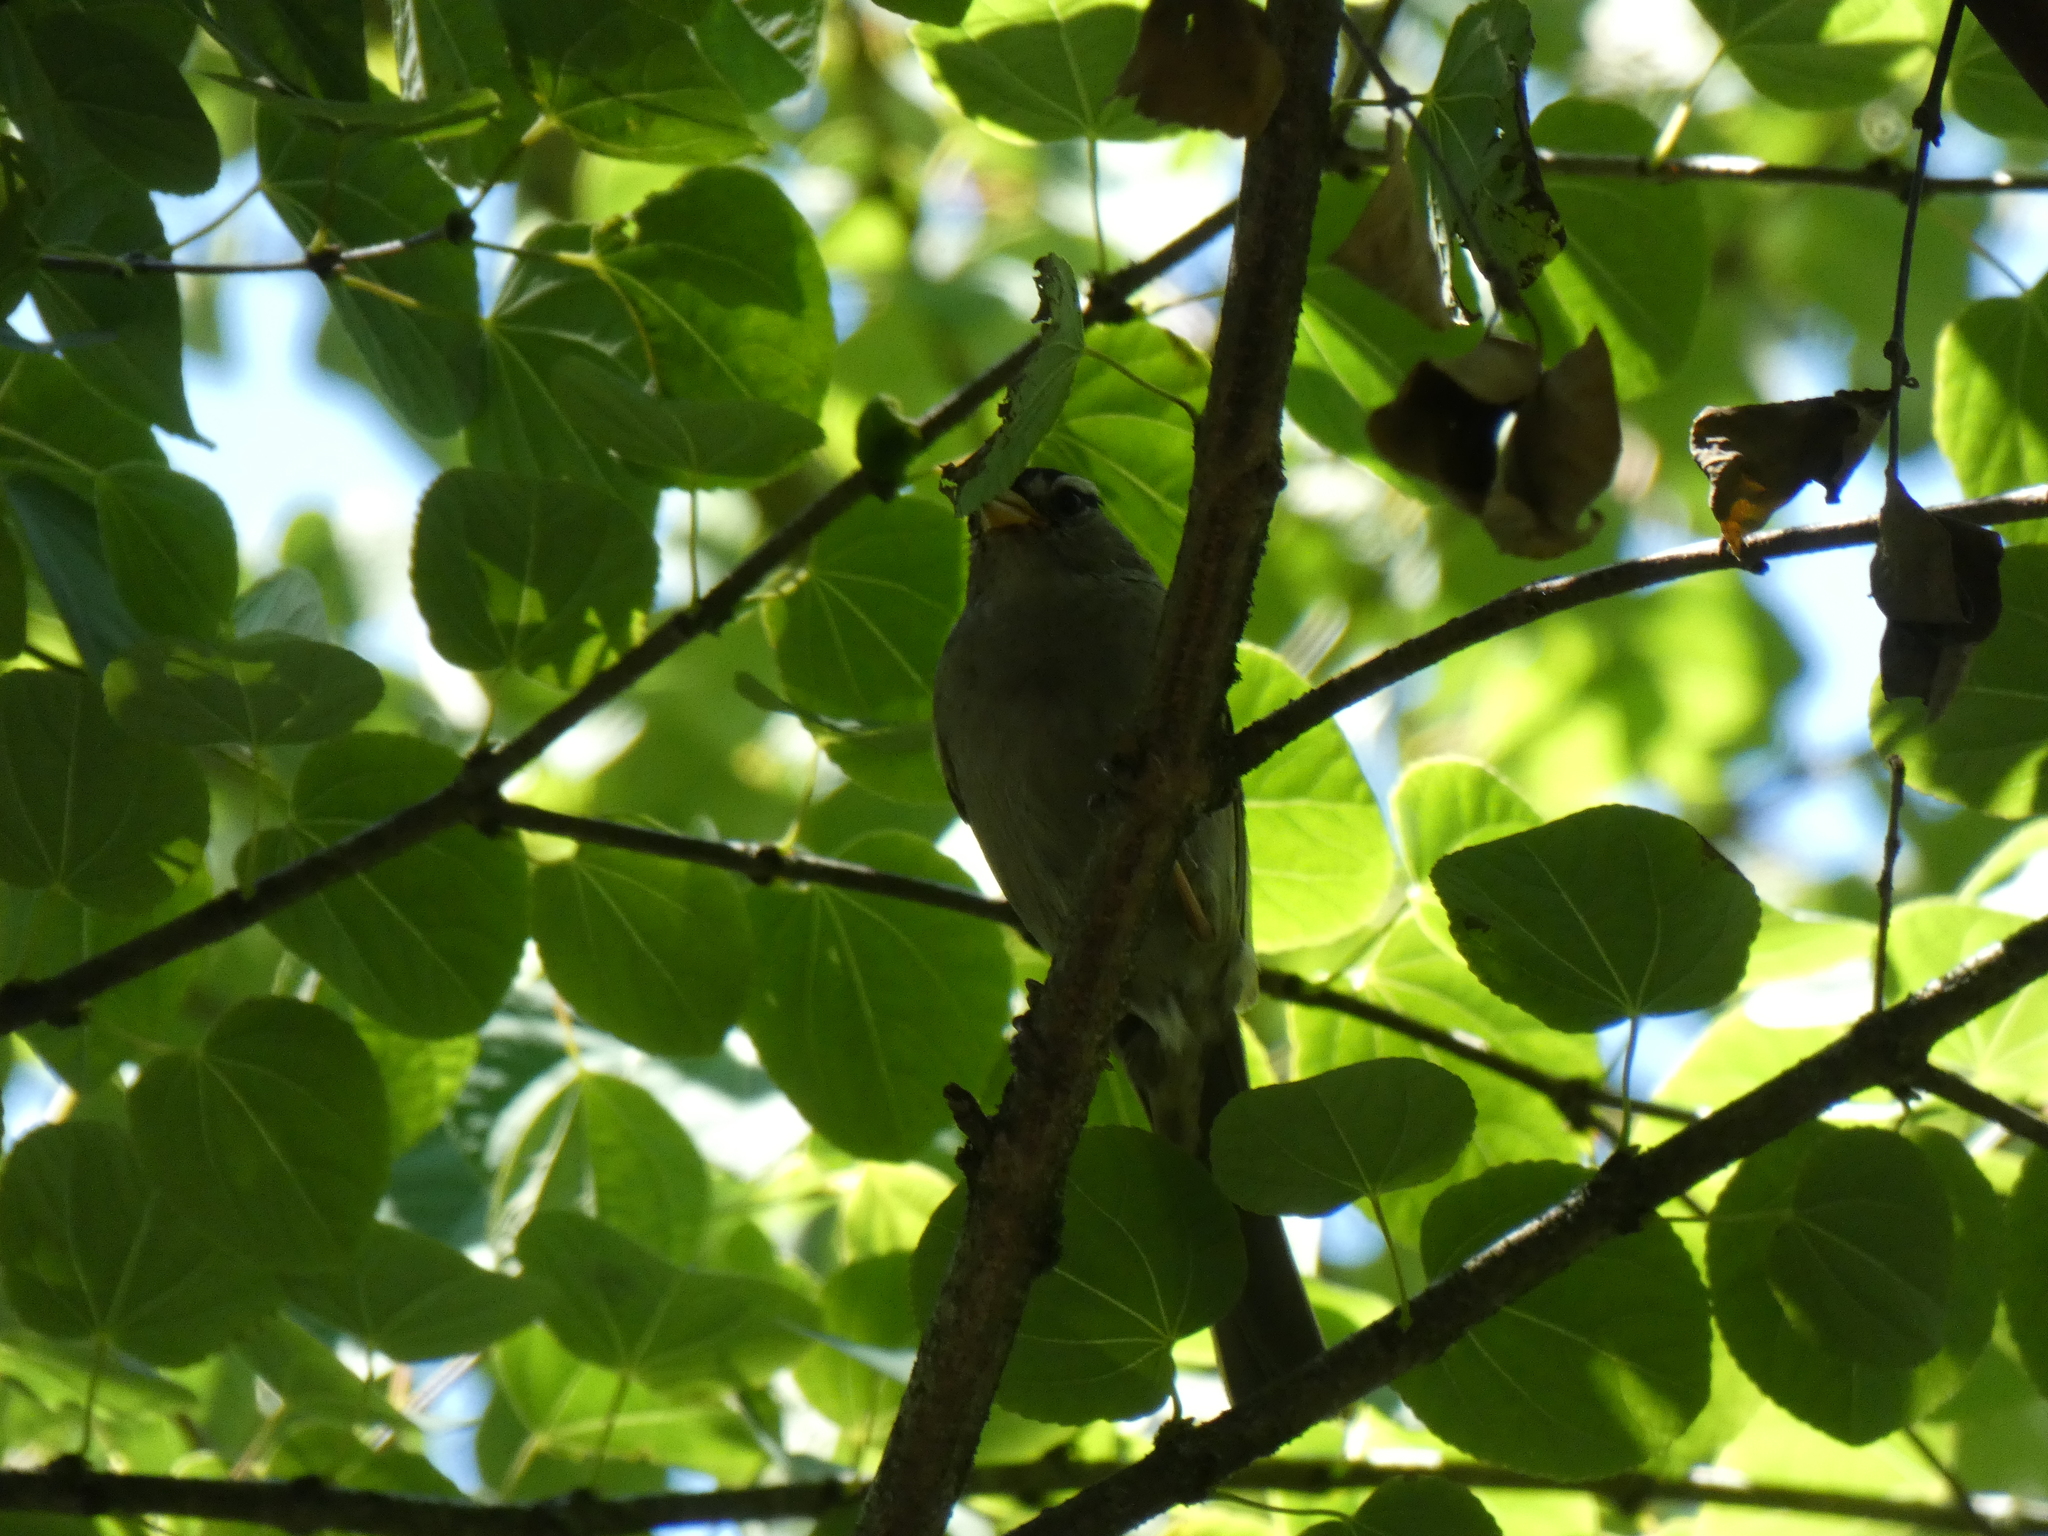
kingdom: Animalia
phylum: Chordata
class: Aves
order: Passeriformes
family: Passerellidae
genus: Zonotrichia
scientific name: Zonotrichia leucophrys
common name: White-crowned sparrow
